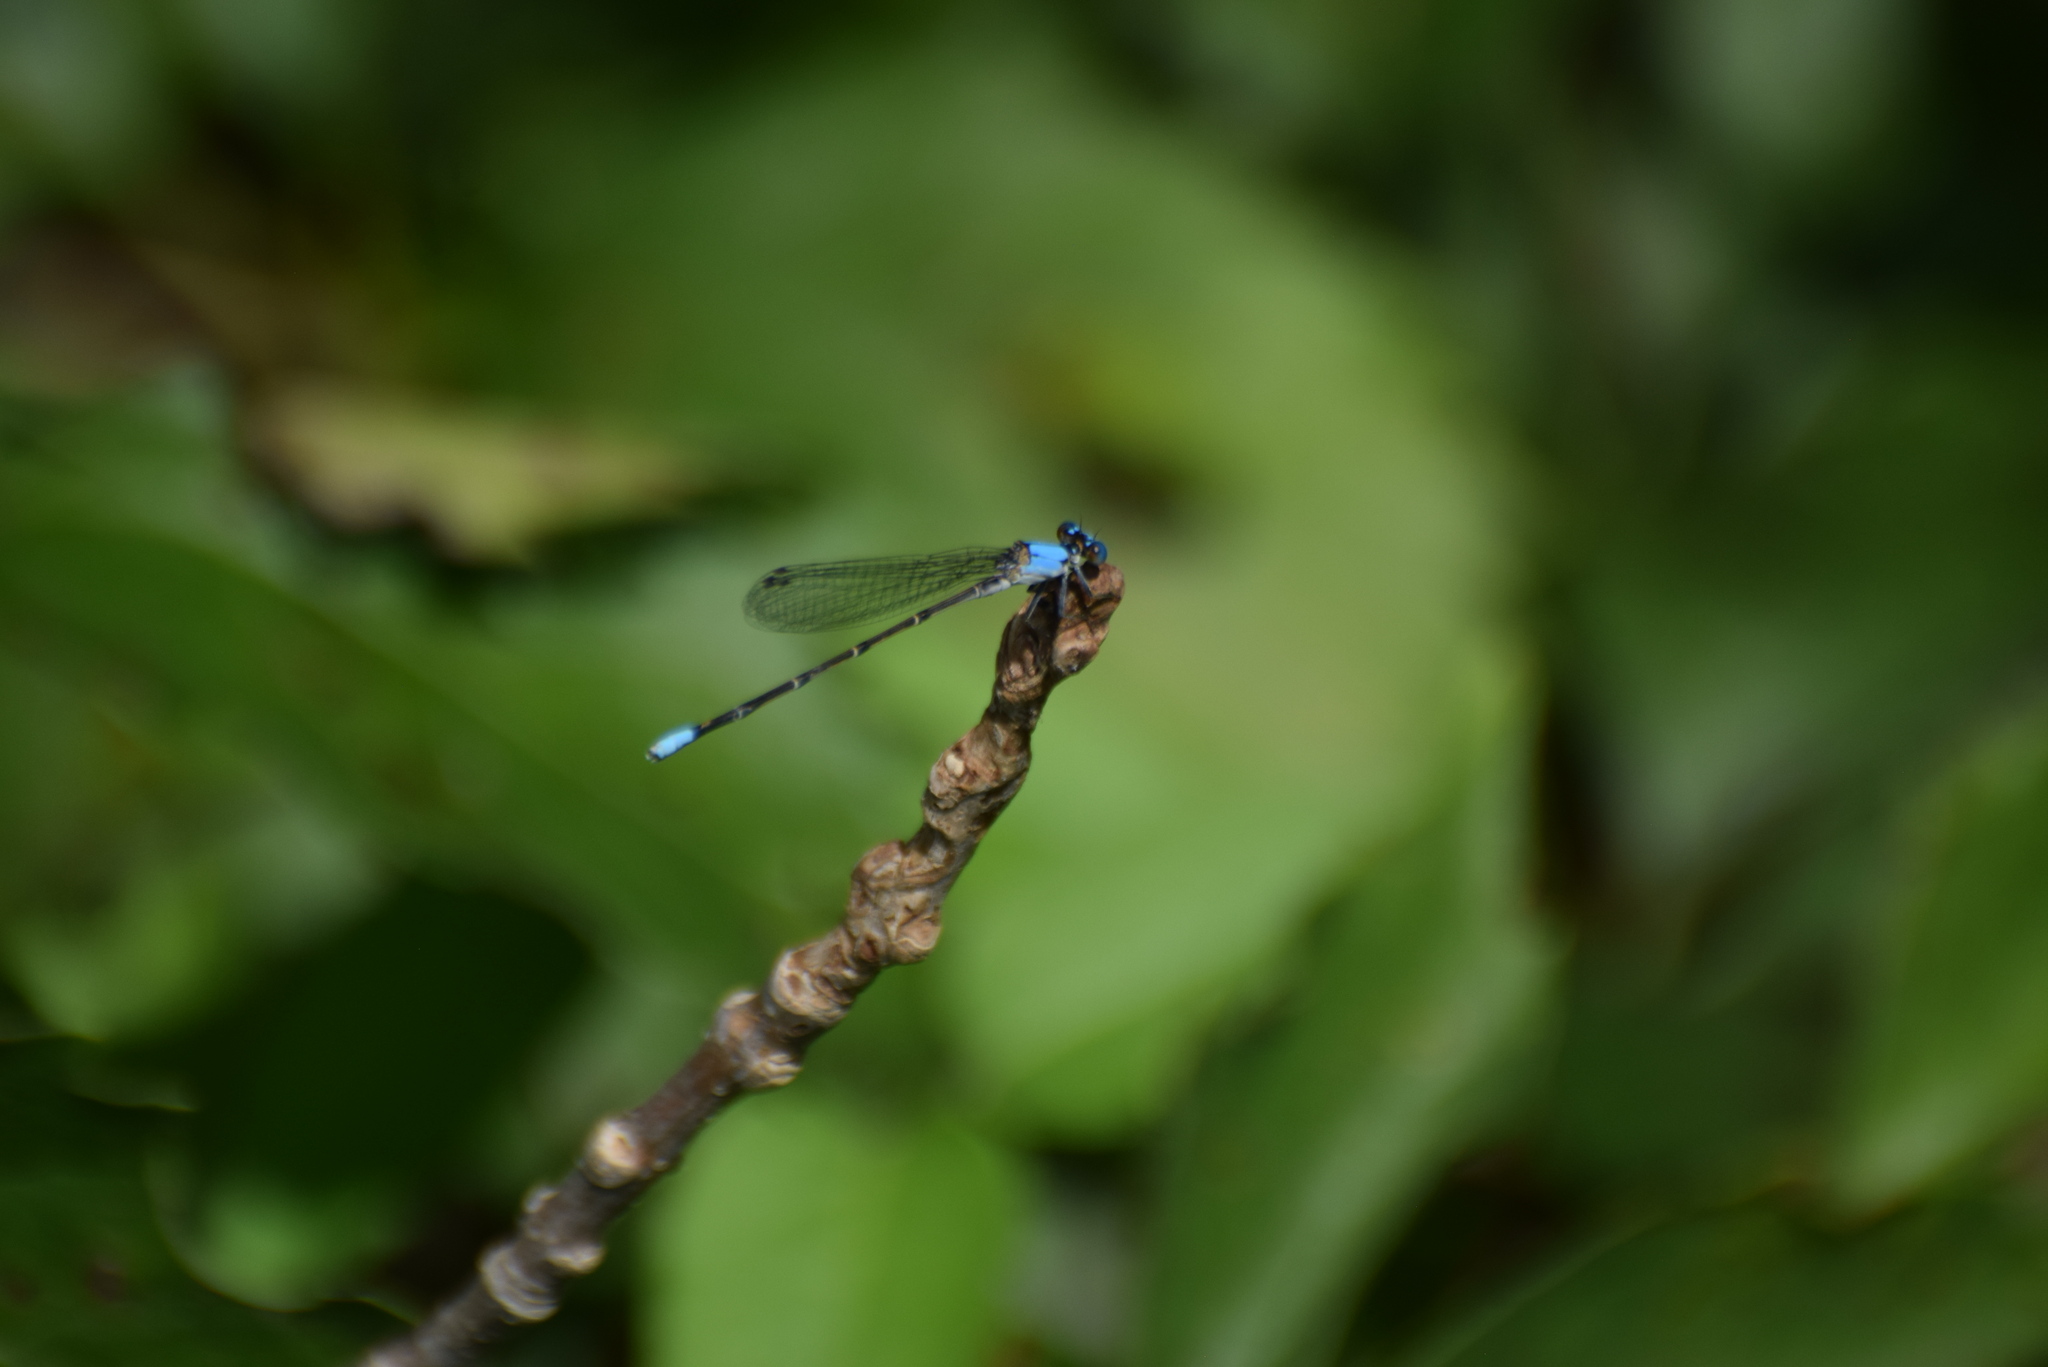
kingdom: Animalia
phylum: Arthropoda
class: Insecta
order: Odonata
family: Coenagrionidae
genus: Argia
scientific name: Argia apicalis
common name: Blue-fronted dancer
